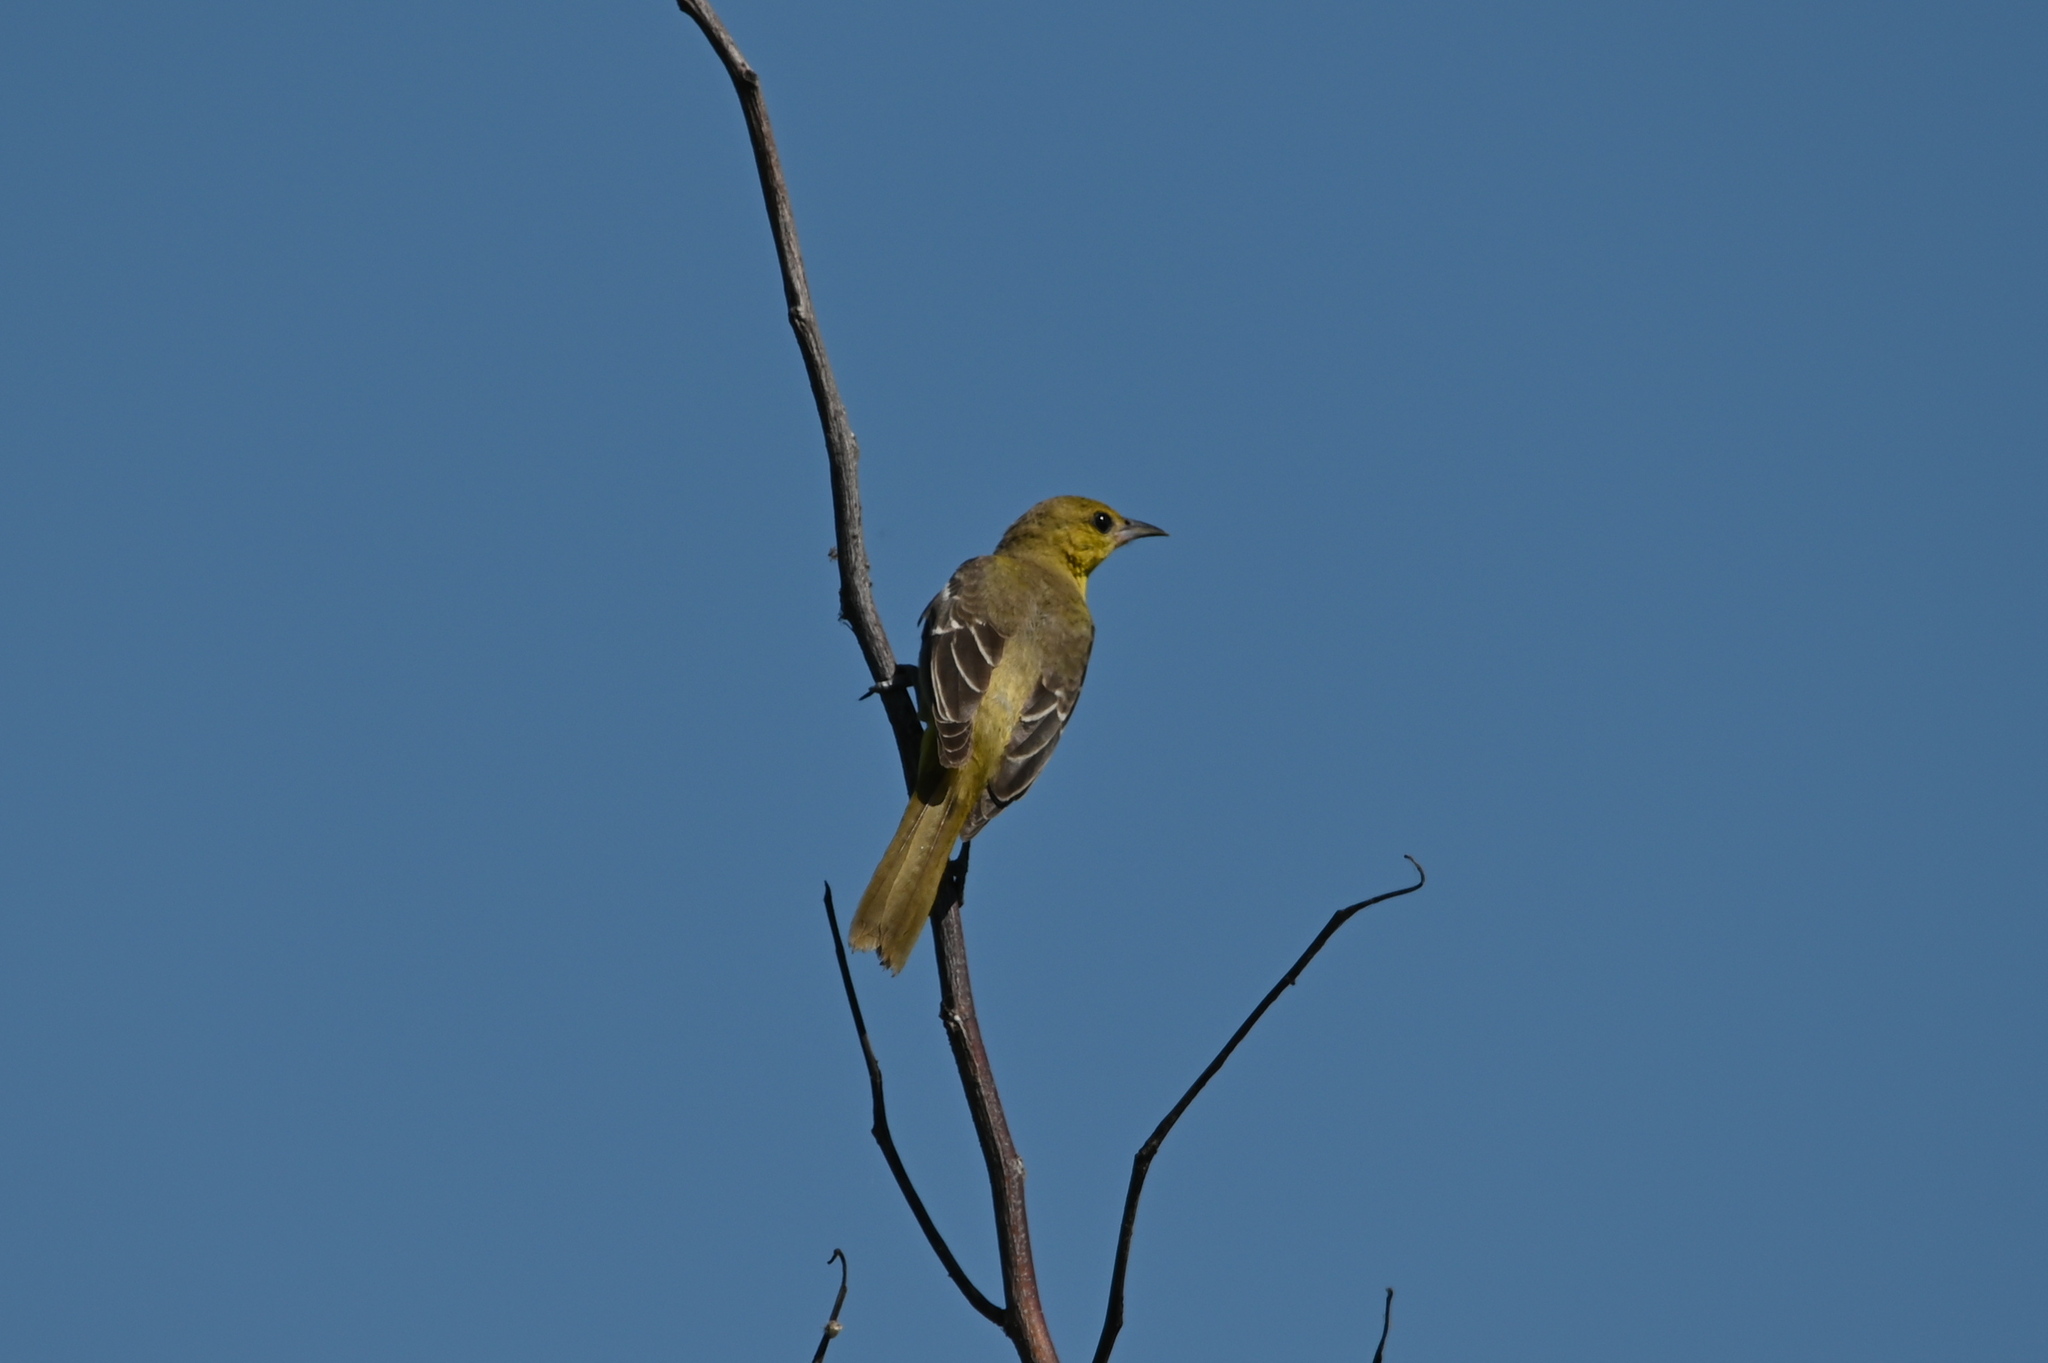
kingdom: Animalia
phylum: Chordata
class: Aves
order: Passeriformes
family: Icteridae
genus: Icterus
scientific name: Icterus spurius
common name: Orchard oriole
